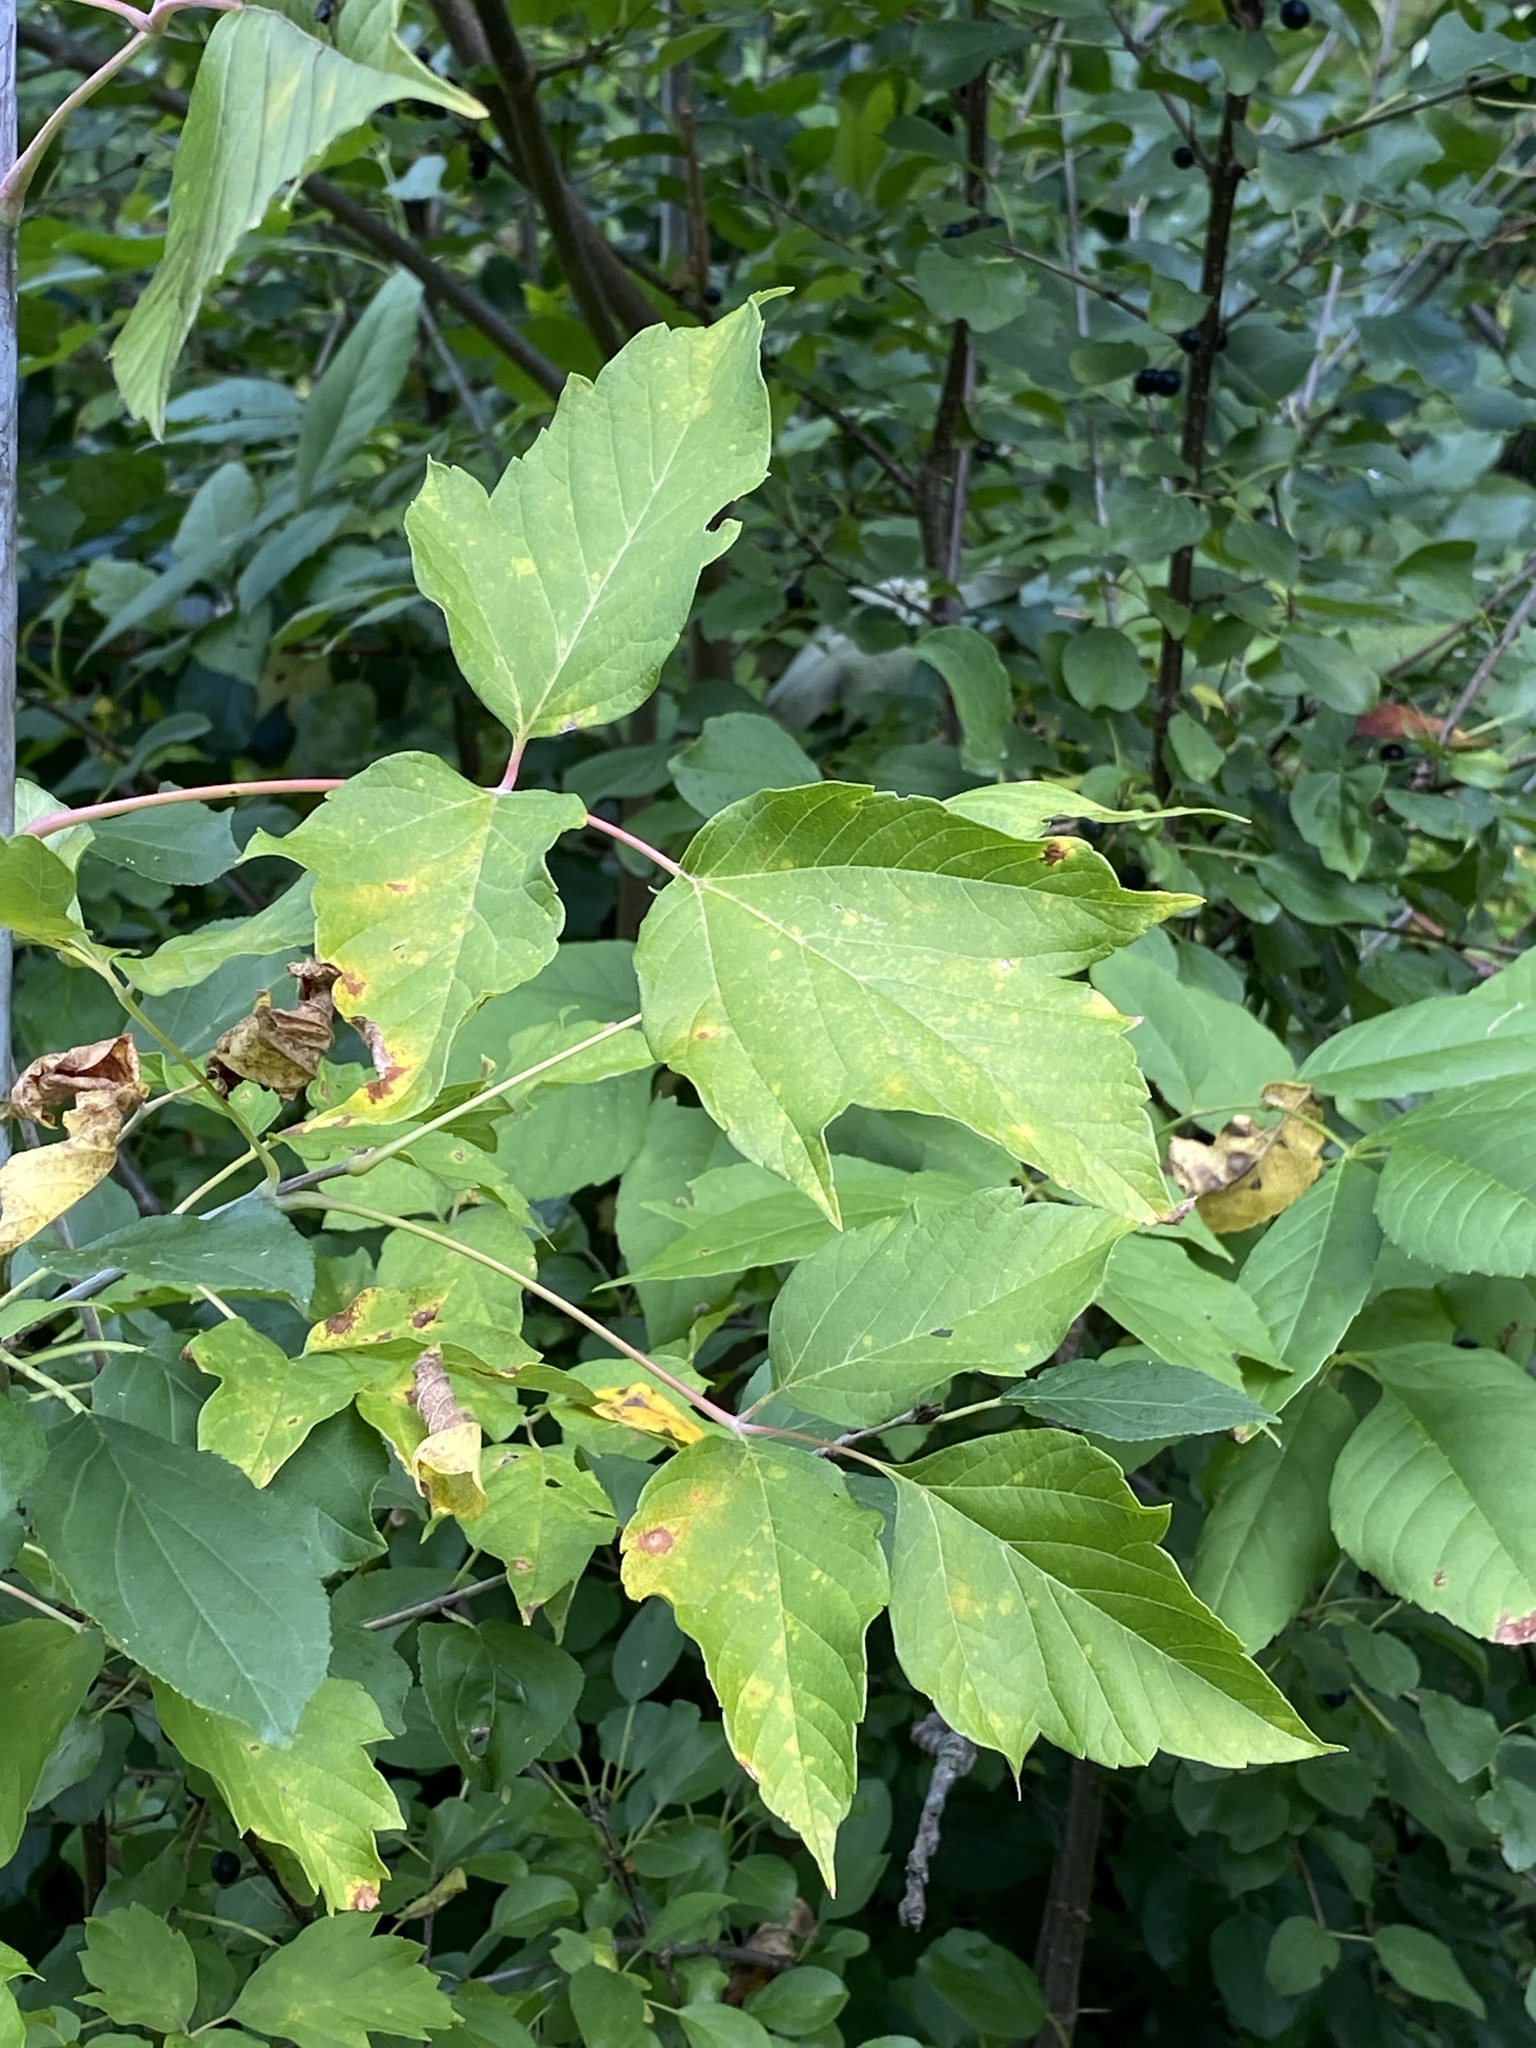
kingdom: Plantae
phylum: Tracheophyta
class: Magnoliopsida
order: Sapindales
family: Sapindaceae
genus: Acer
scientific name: Acer negundo
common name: Ashleaf maple
